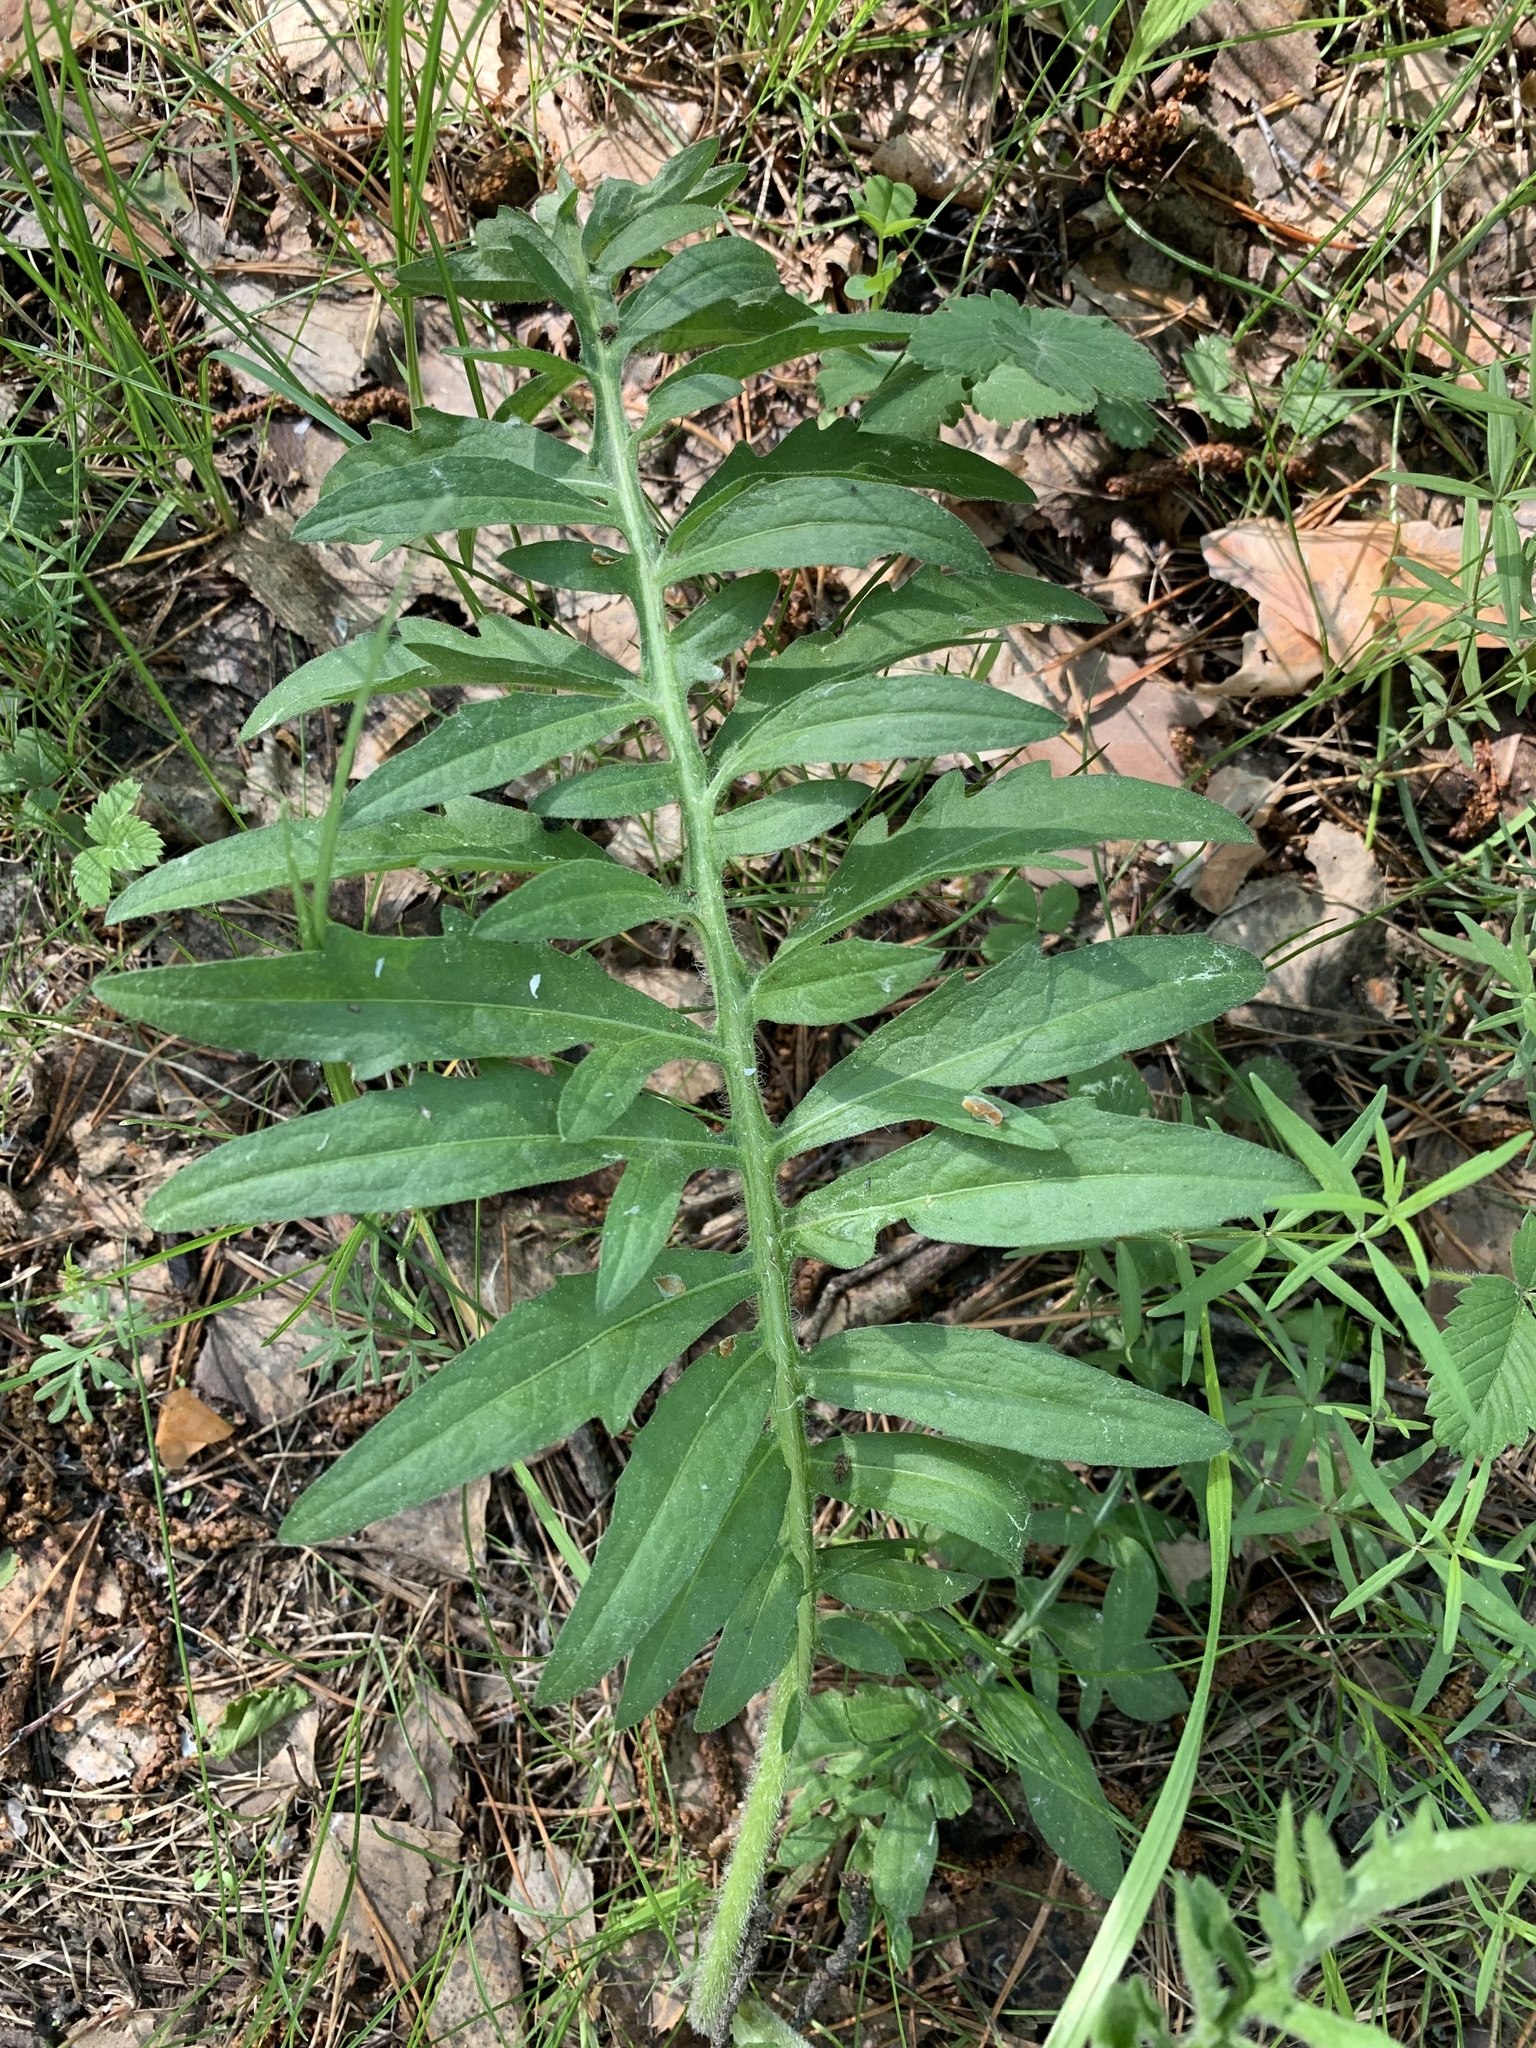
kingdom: Plantae
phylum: Tracheophyta
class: Magnoliopsida
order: Asterales
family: Asteraceae
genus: Centaurea
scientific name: Centaurea scabiosa
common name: Greater knapweed
